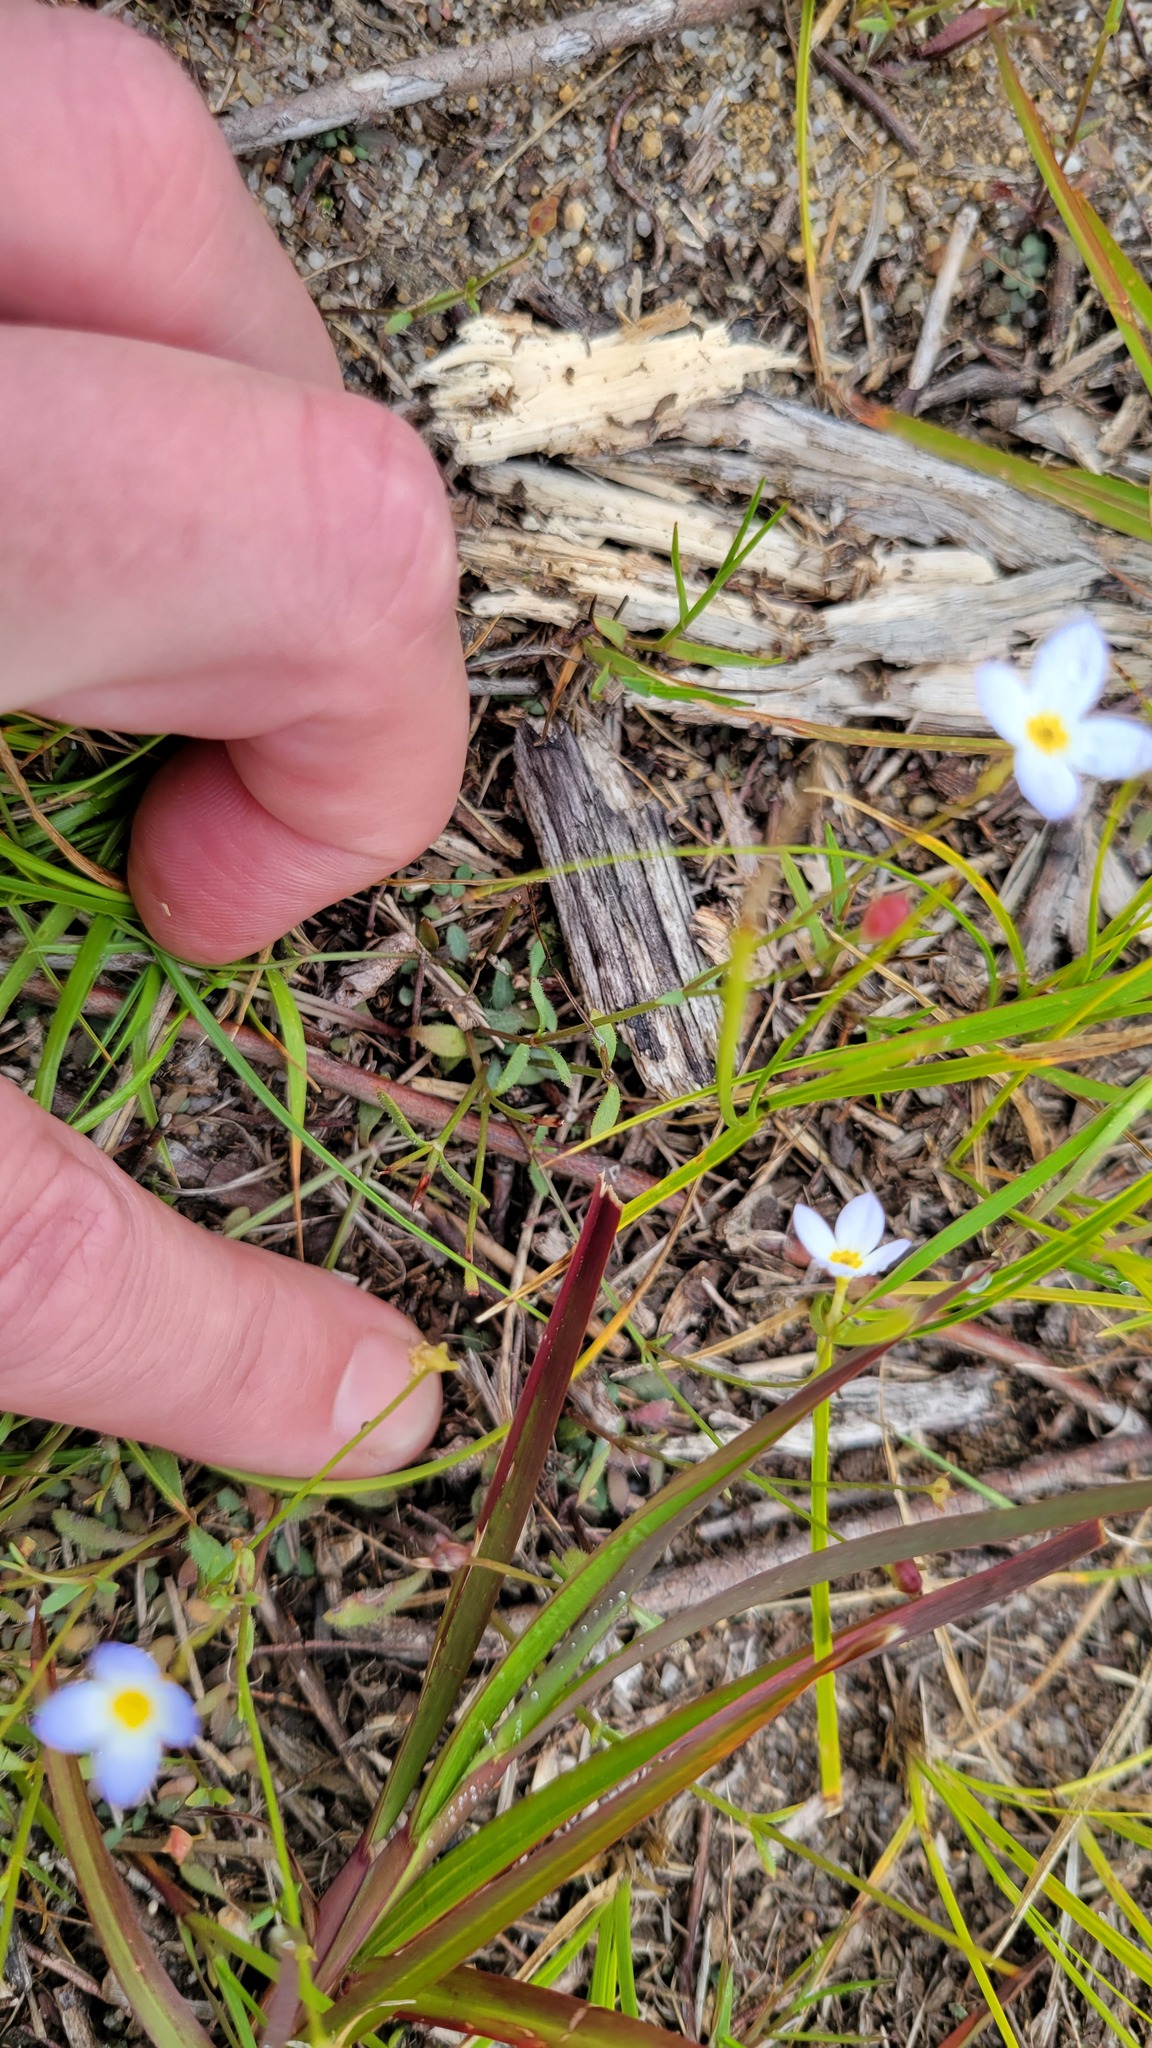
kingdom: Plantae
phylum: Tracheophyta
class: Magnoliopsida
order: Gentianales
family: Rubiaceae
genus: Houstonia
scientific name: Houstonia caerulea
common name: Bluets
